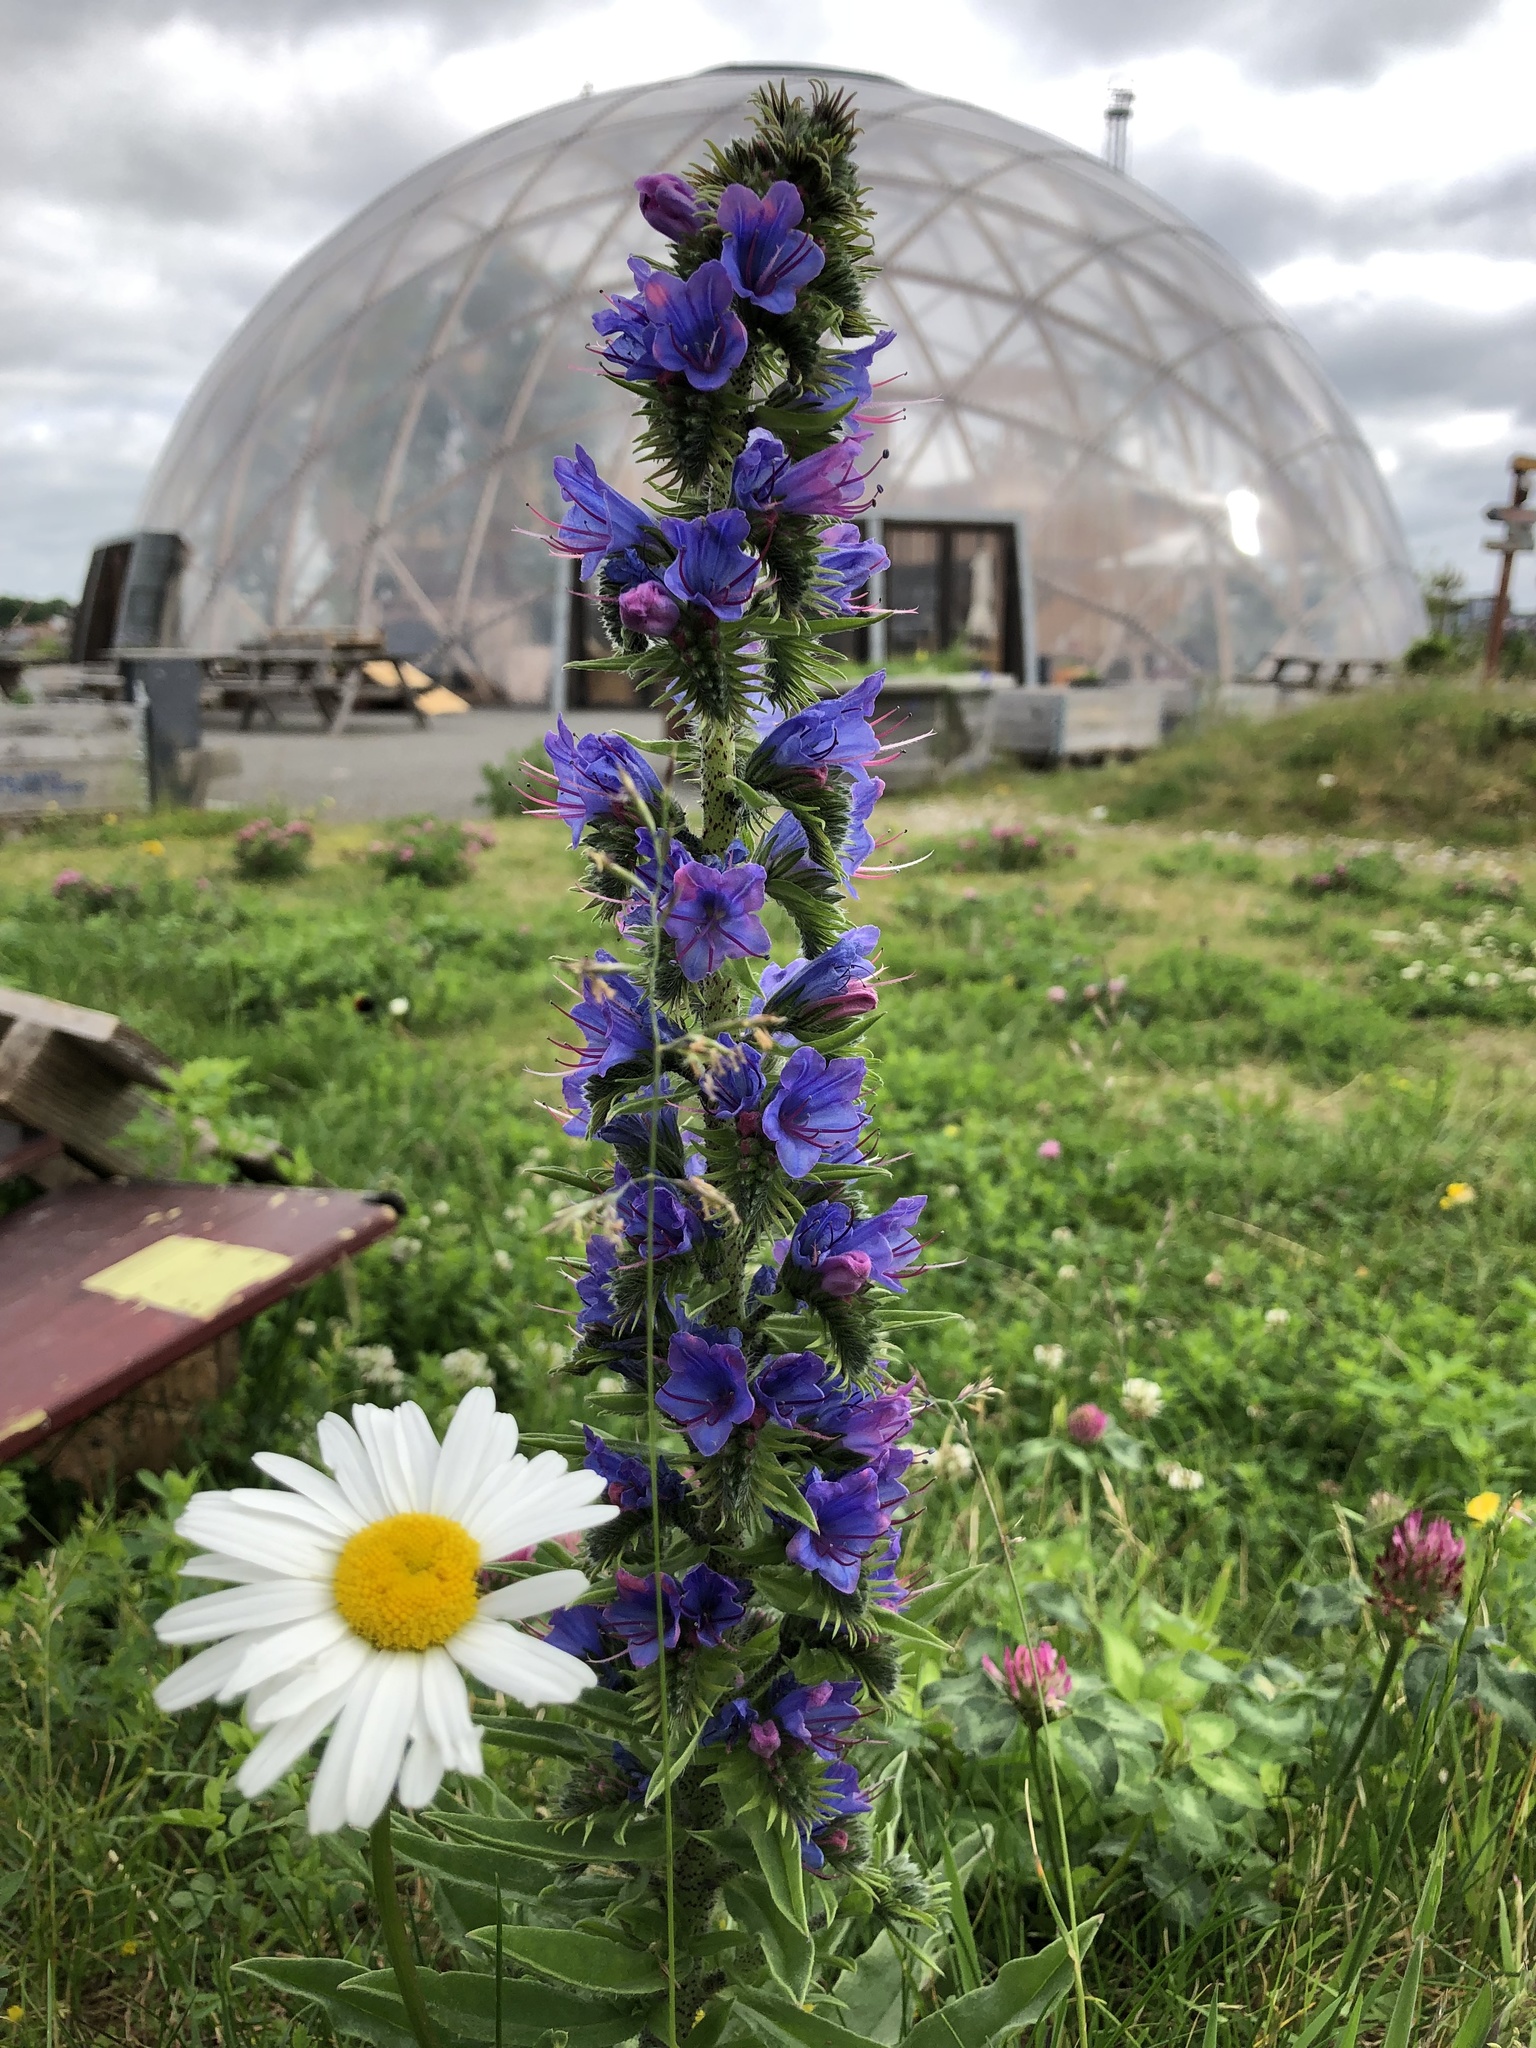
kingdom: Plantae
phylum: Tracheophyta
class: Magnoliopsida
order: Boraginales
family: Boraginaceae
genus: Echium
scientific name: Echium vulgare
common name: Common viper's bugloss
